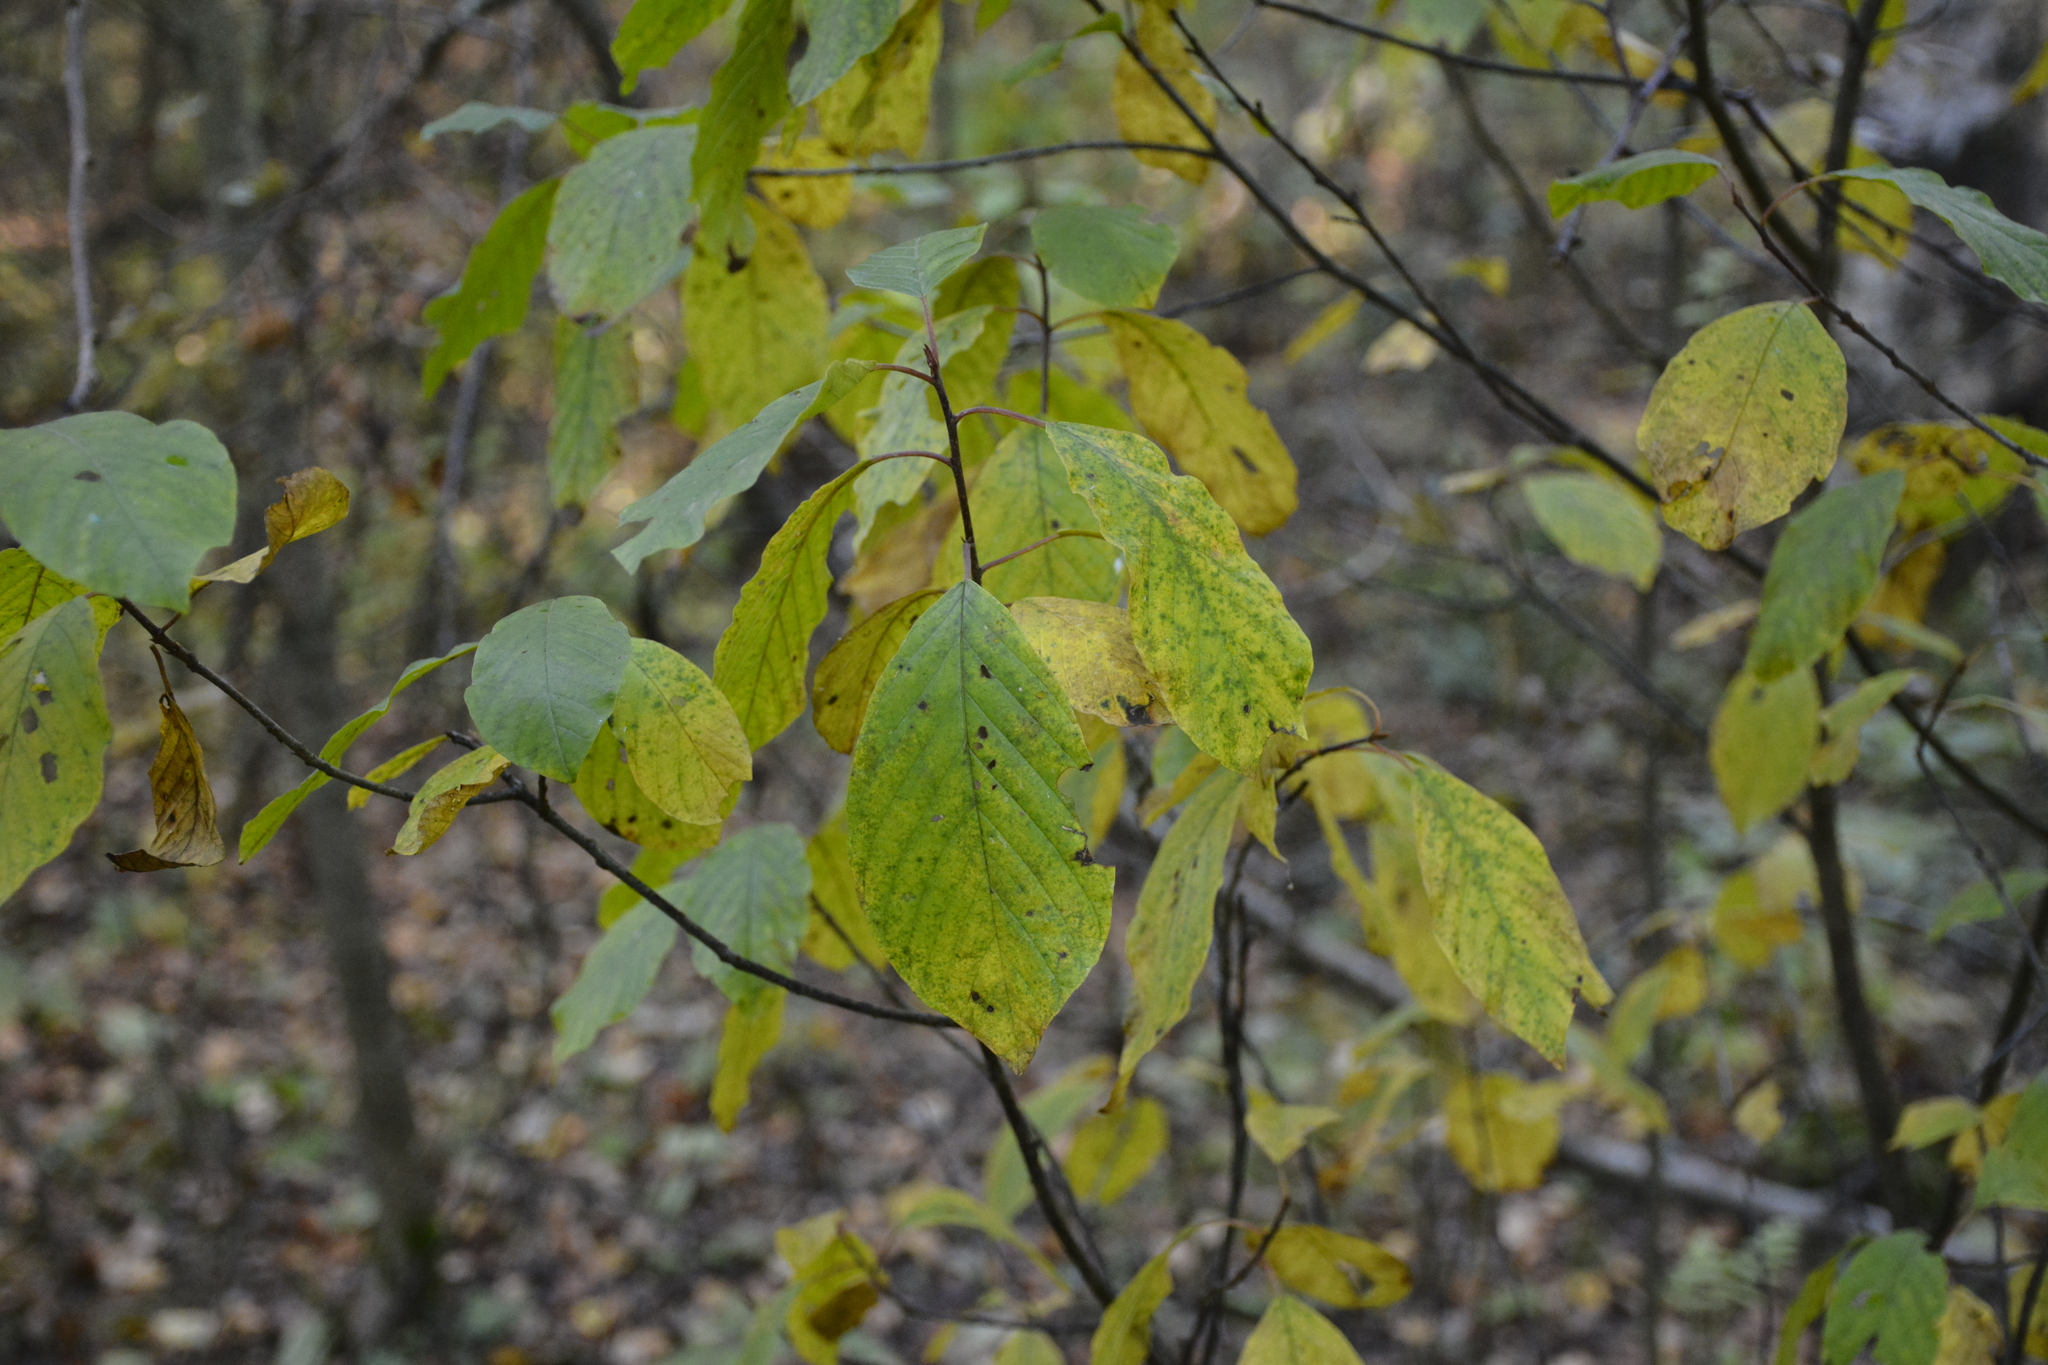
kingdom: Plantae
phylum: Tracheophyta
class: Magnoliopsida
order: Rosales
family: Rhamnaceae
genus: Frangula
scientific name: Frangula alnus
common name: Alder buckthorn
